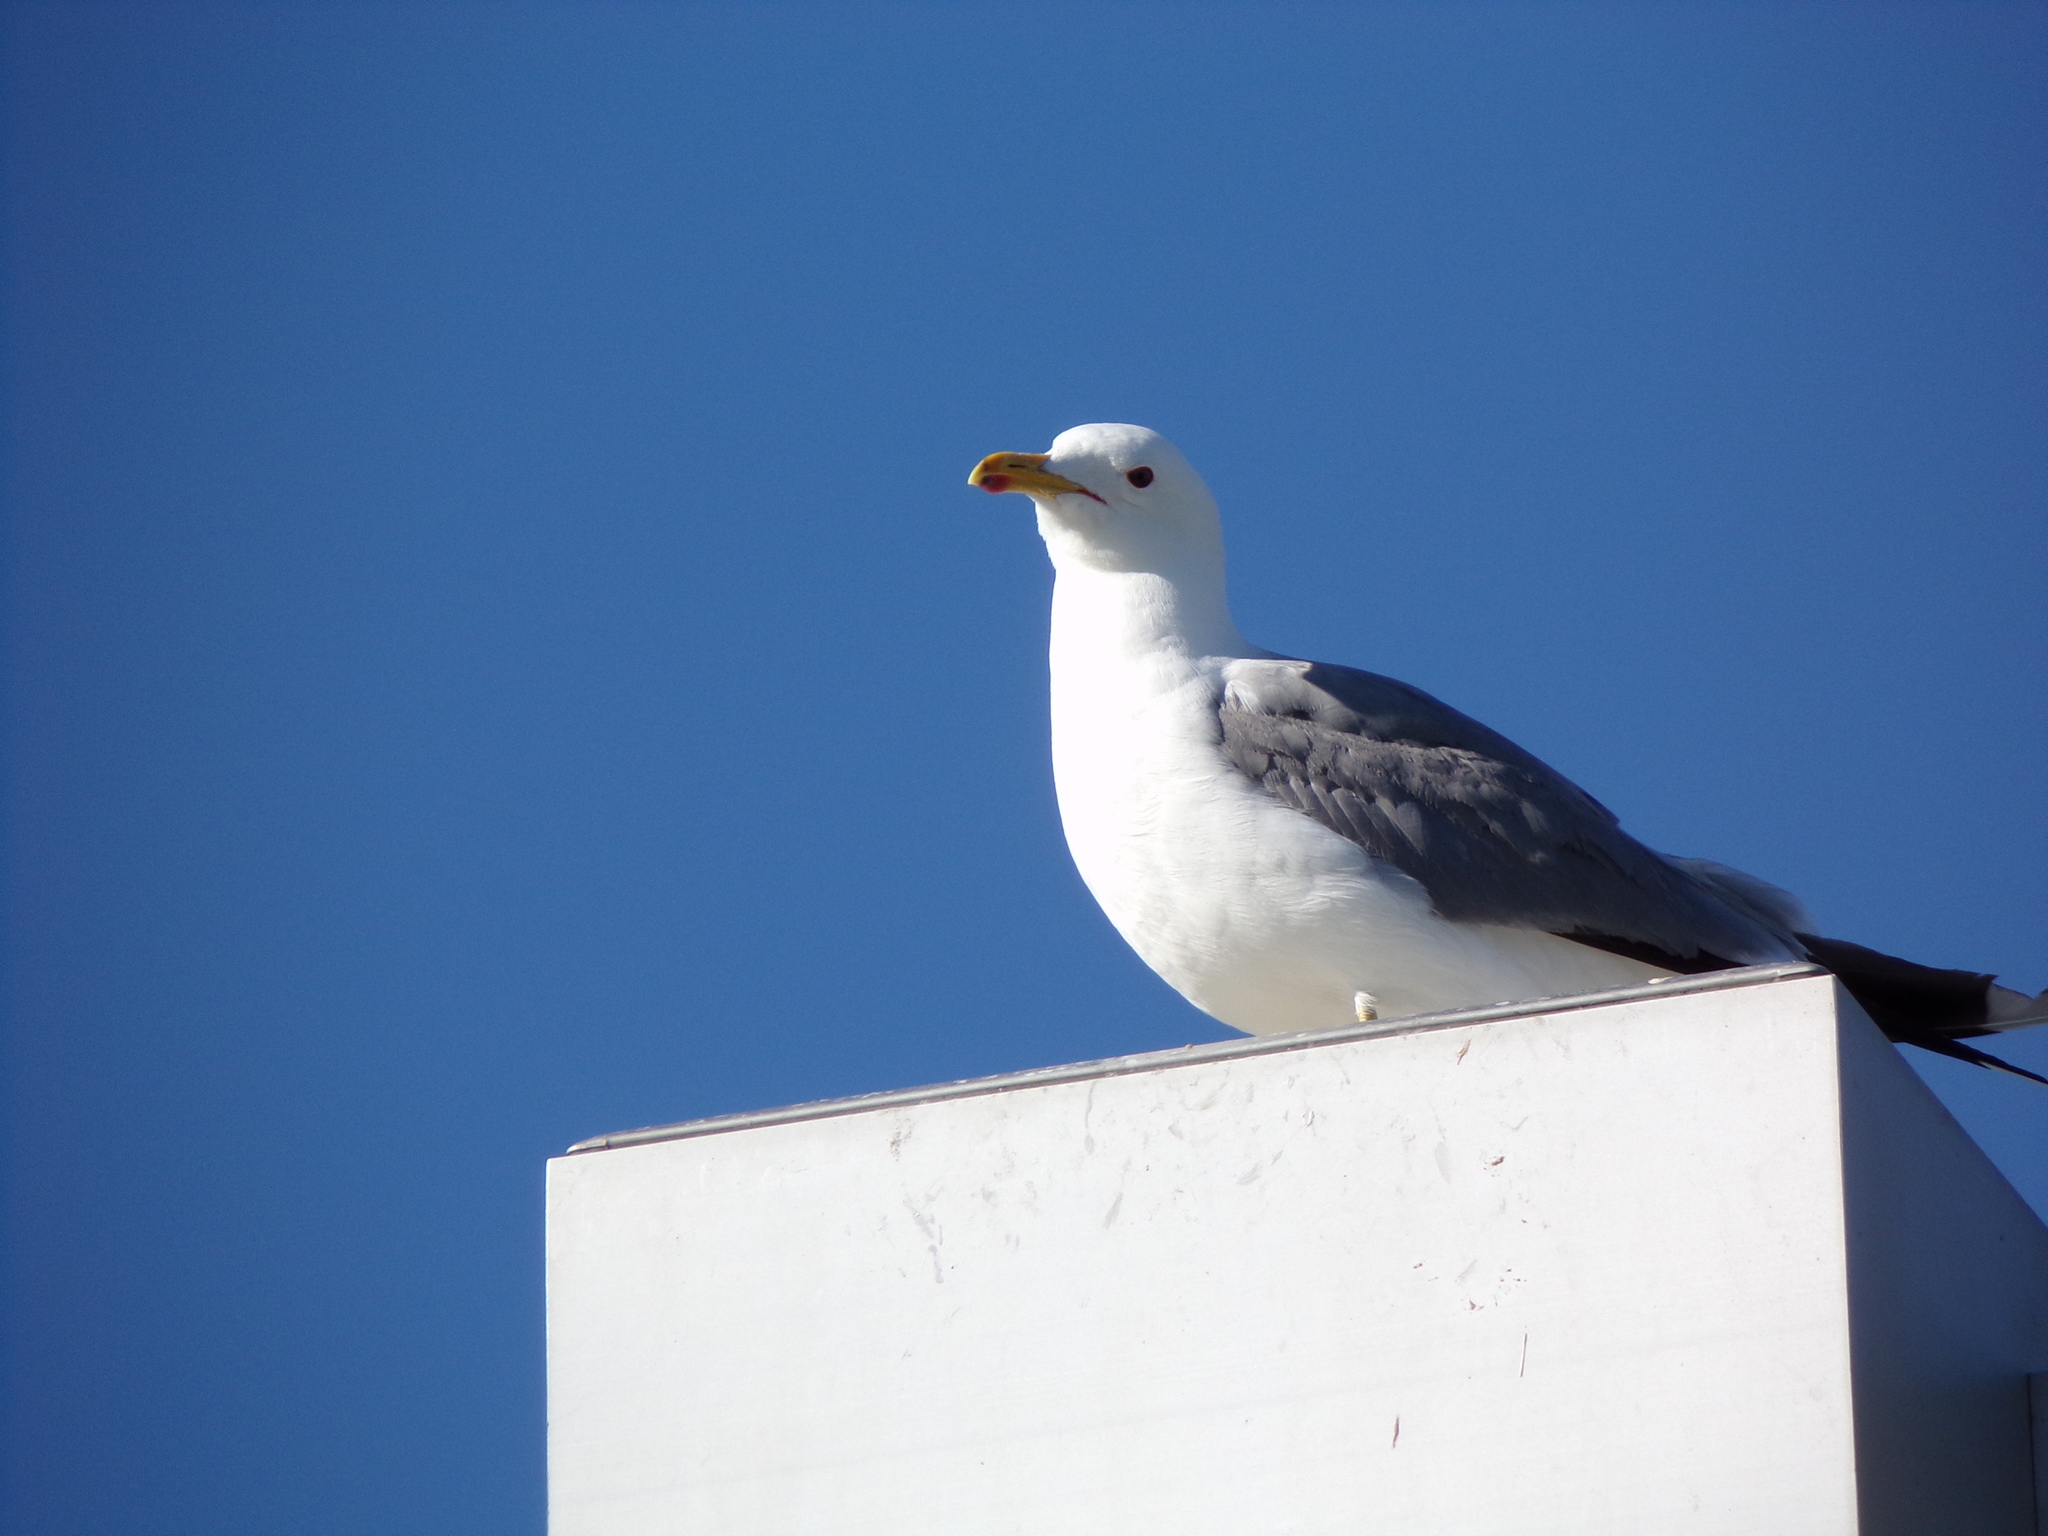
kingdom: Animalia
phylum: Chordata
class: Aves
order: Charadriiformes
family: Laridae
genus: Larus
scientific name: Larus californicus
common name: California gull
